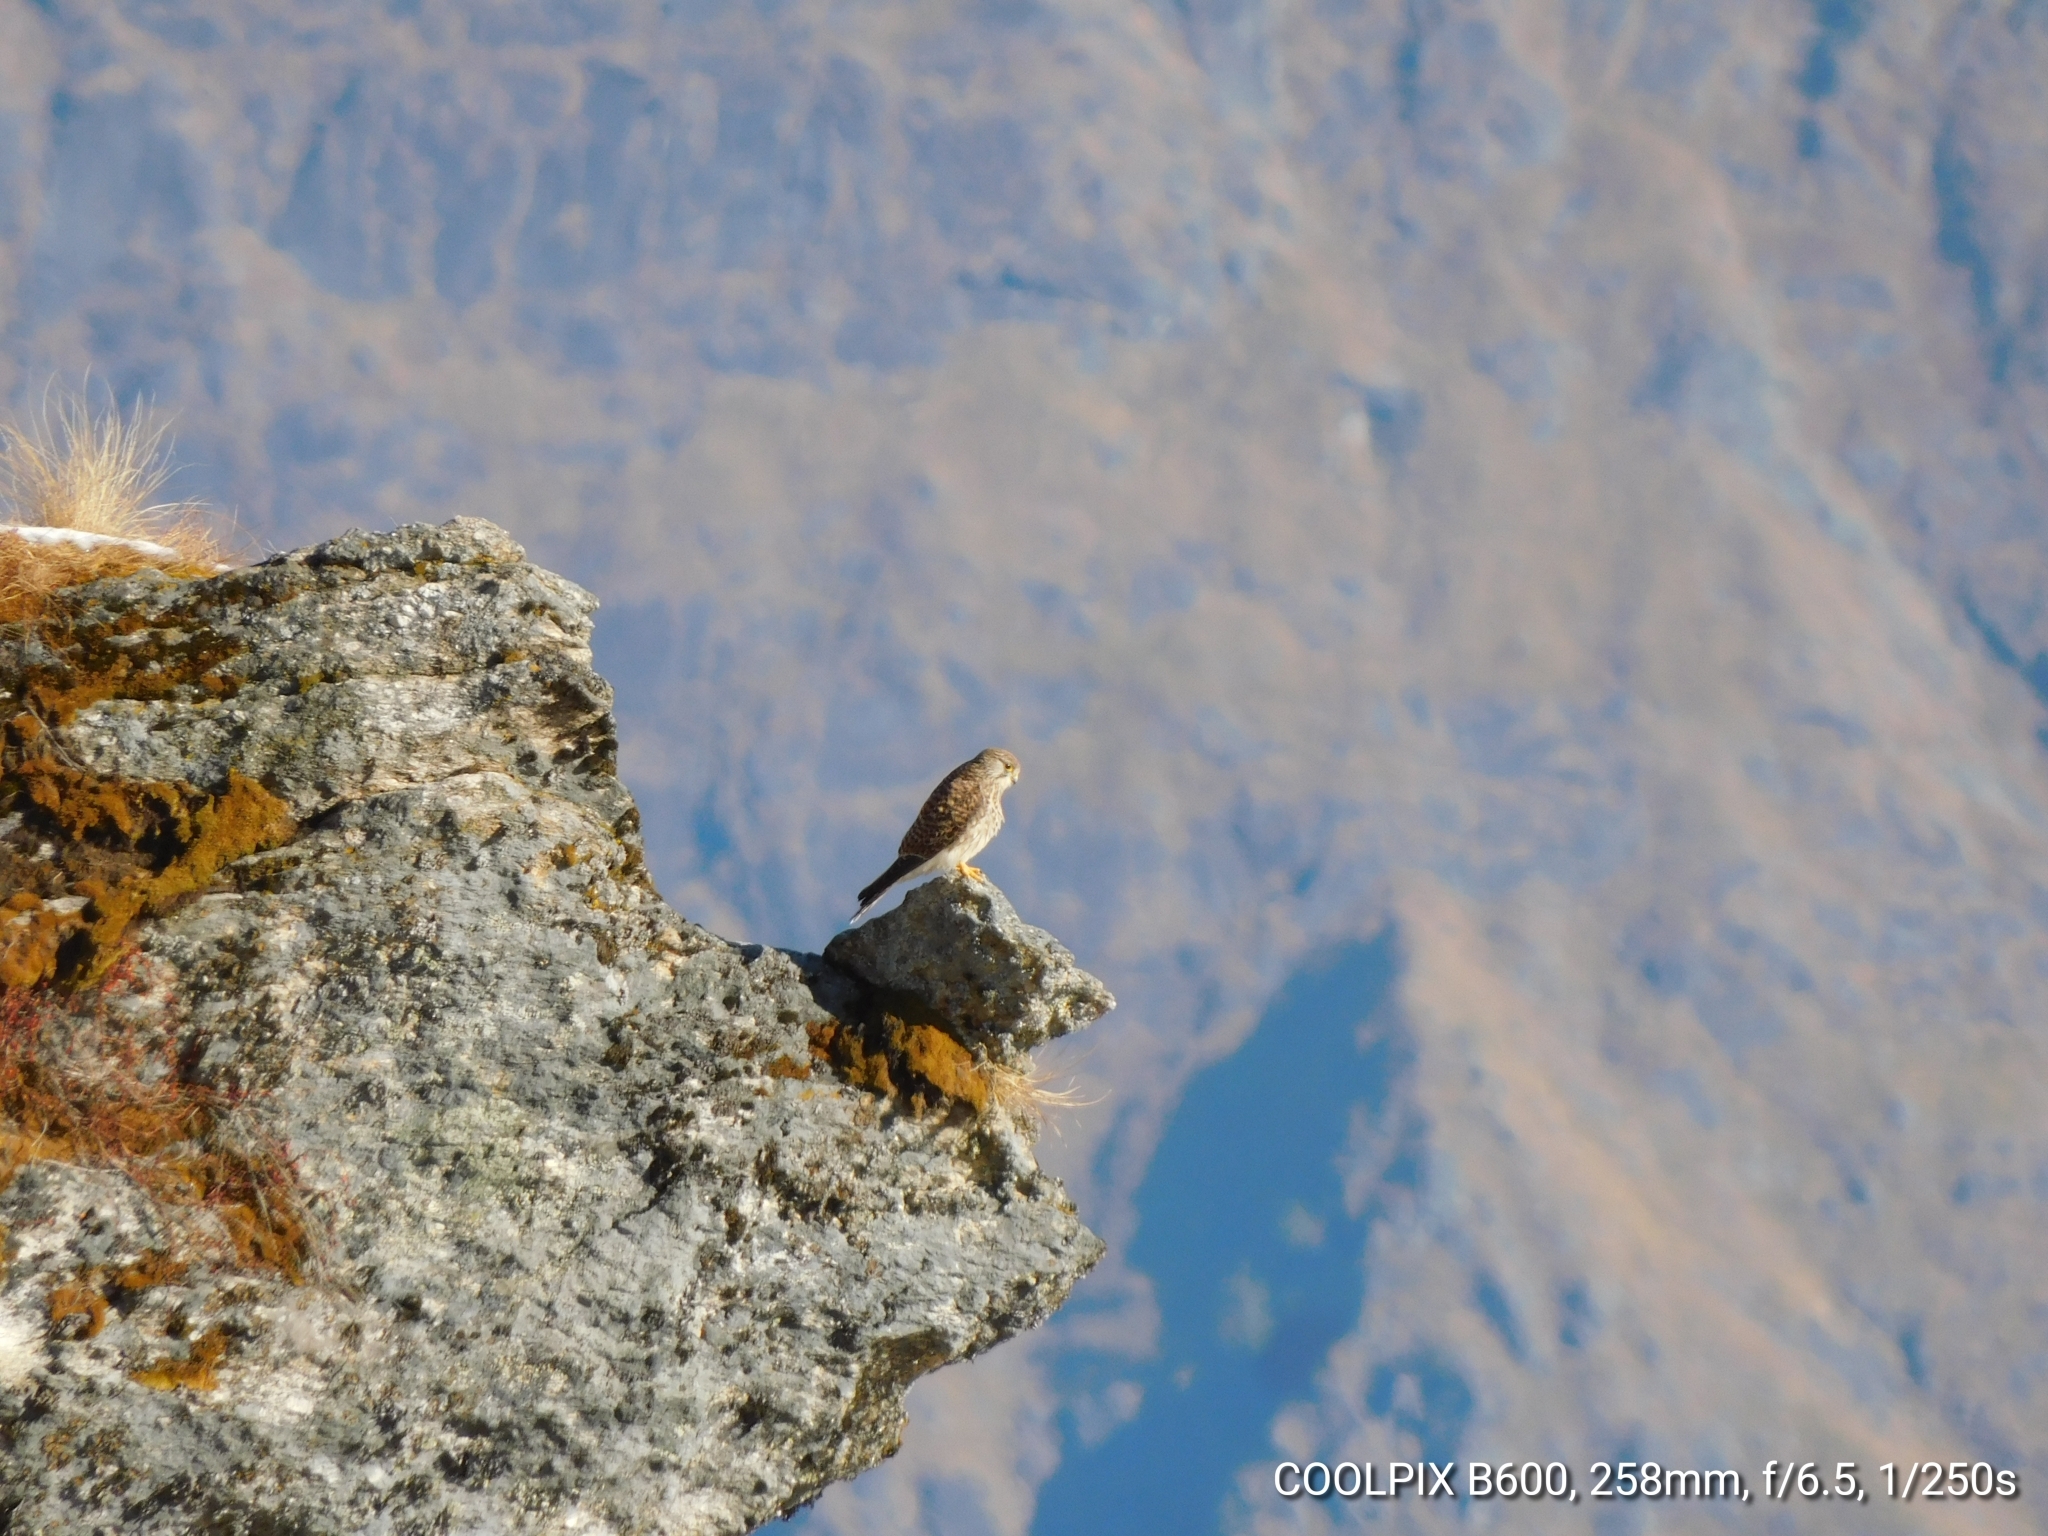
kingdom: Animalia
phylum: Chordata
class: Aves
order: Falconiformes
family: Falconidae
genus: Falco
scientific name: Falco tinnunculus
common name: Common kestrel
